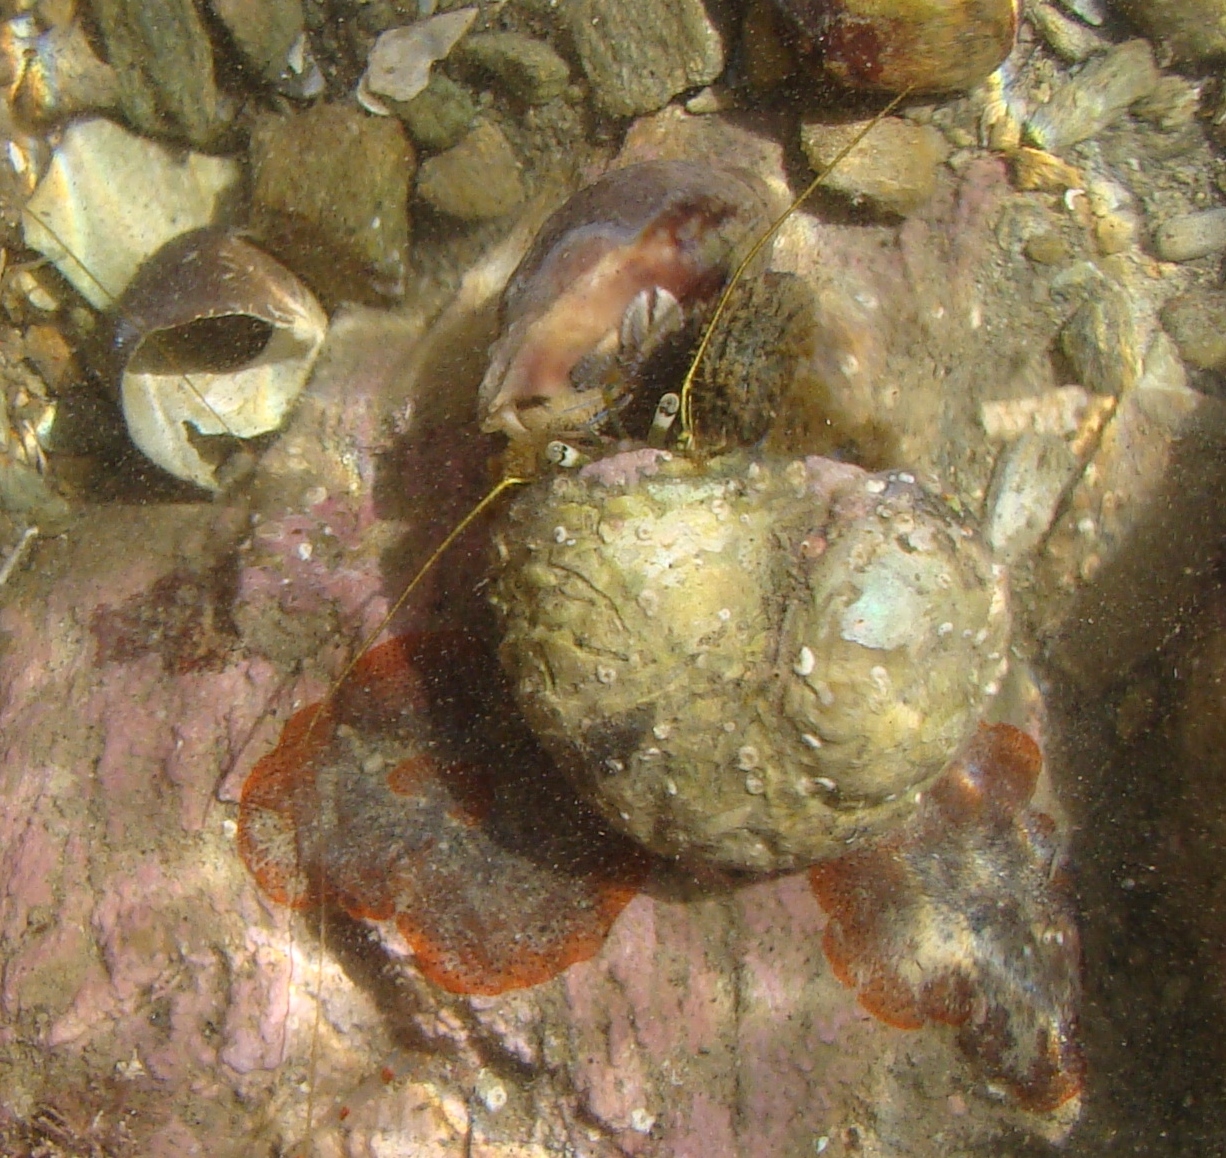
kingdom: Animalia
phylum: Arthropoda
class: Malacostraca
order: Decapoda
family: Paguridae
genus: Pagurus
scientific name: Pagurus novizealandiae
